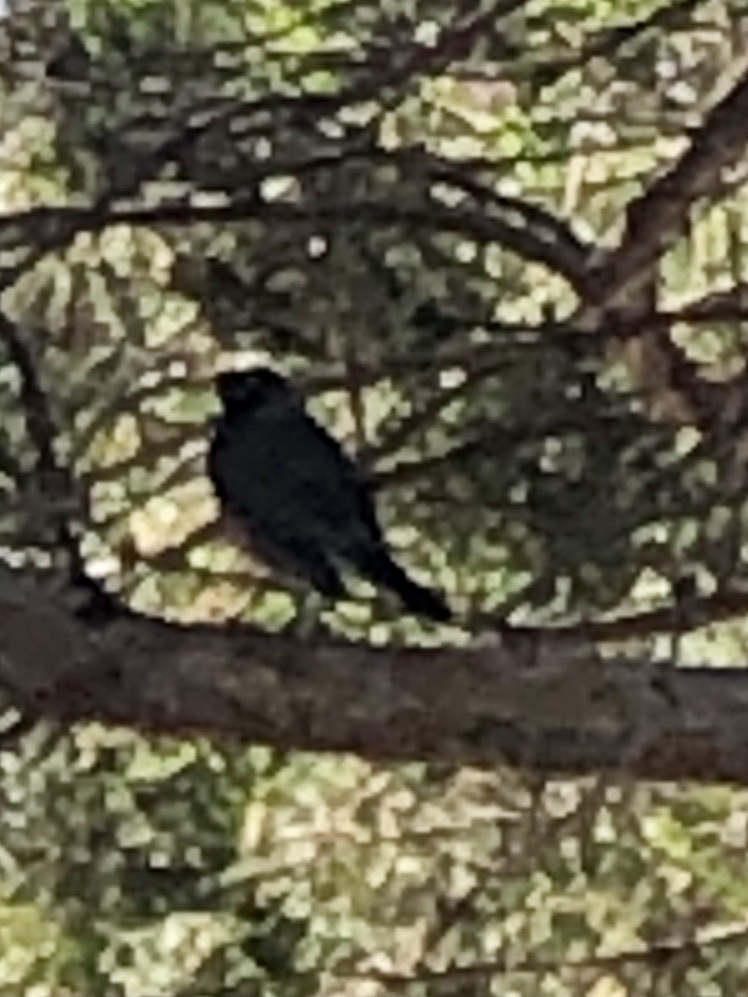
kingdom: Animalia
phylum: Chordata
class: Aves
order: Passeriformes
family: Turdidae
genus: Turdus
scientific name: Turdus migratorius
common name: American robin
